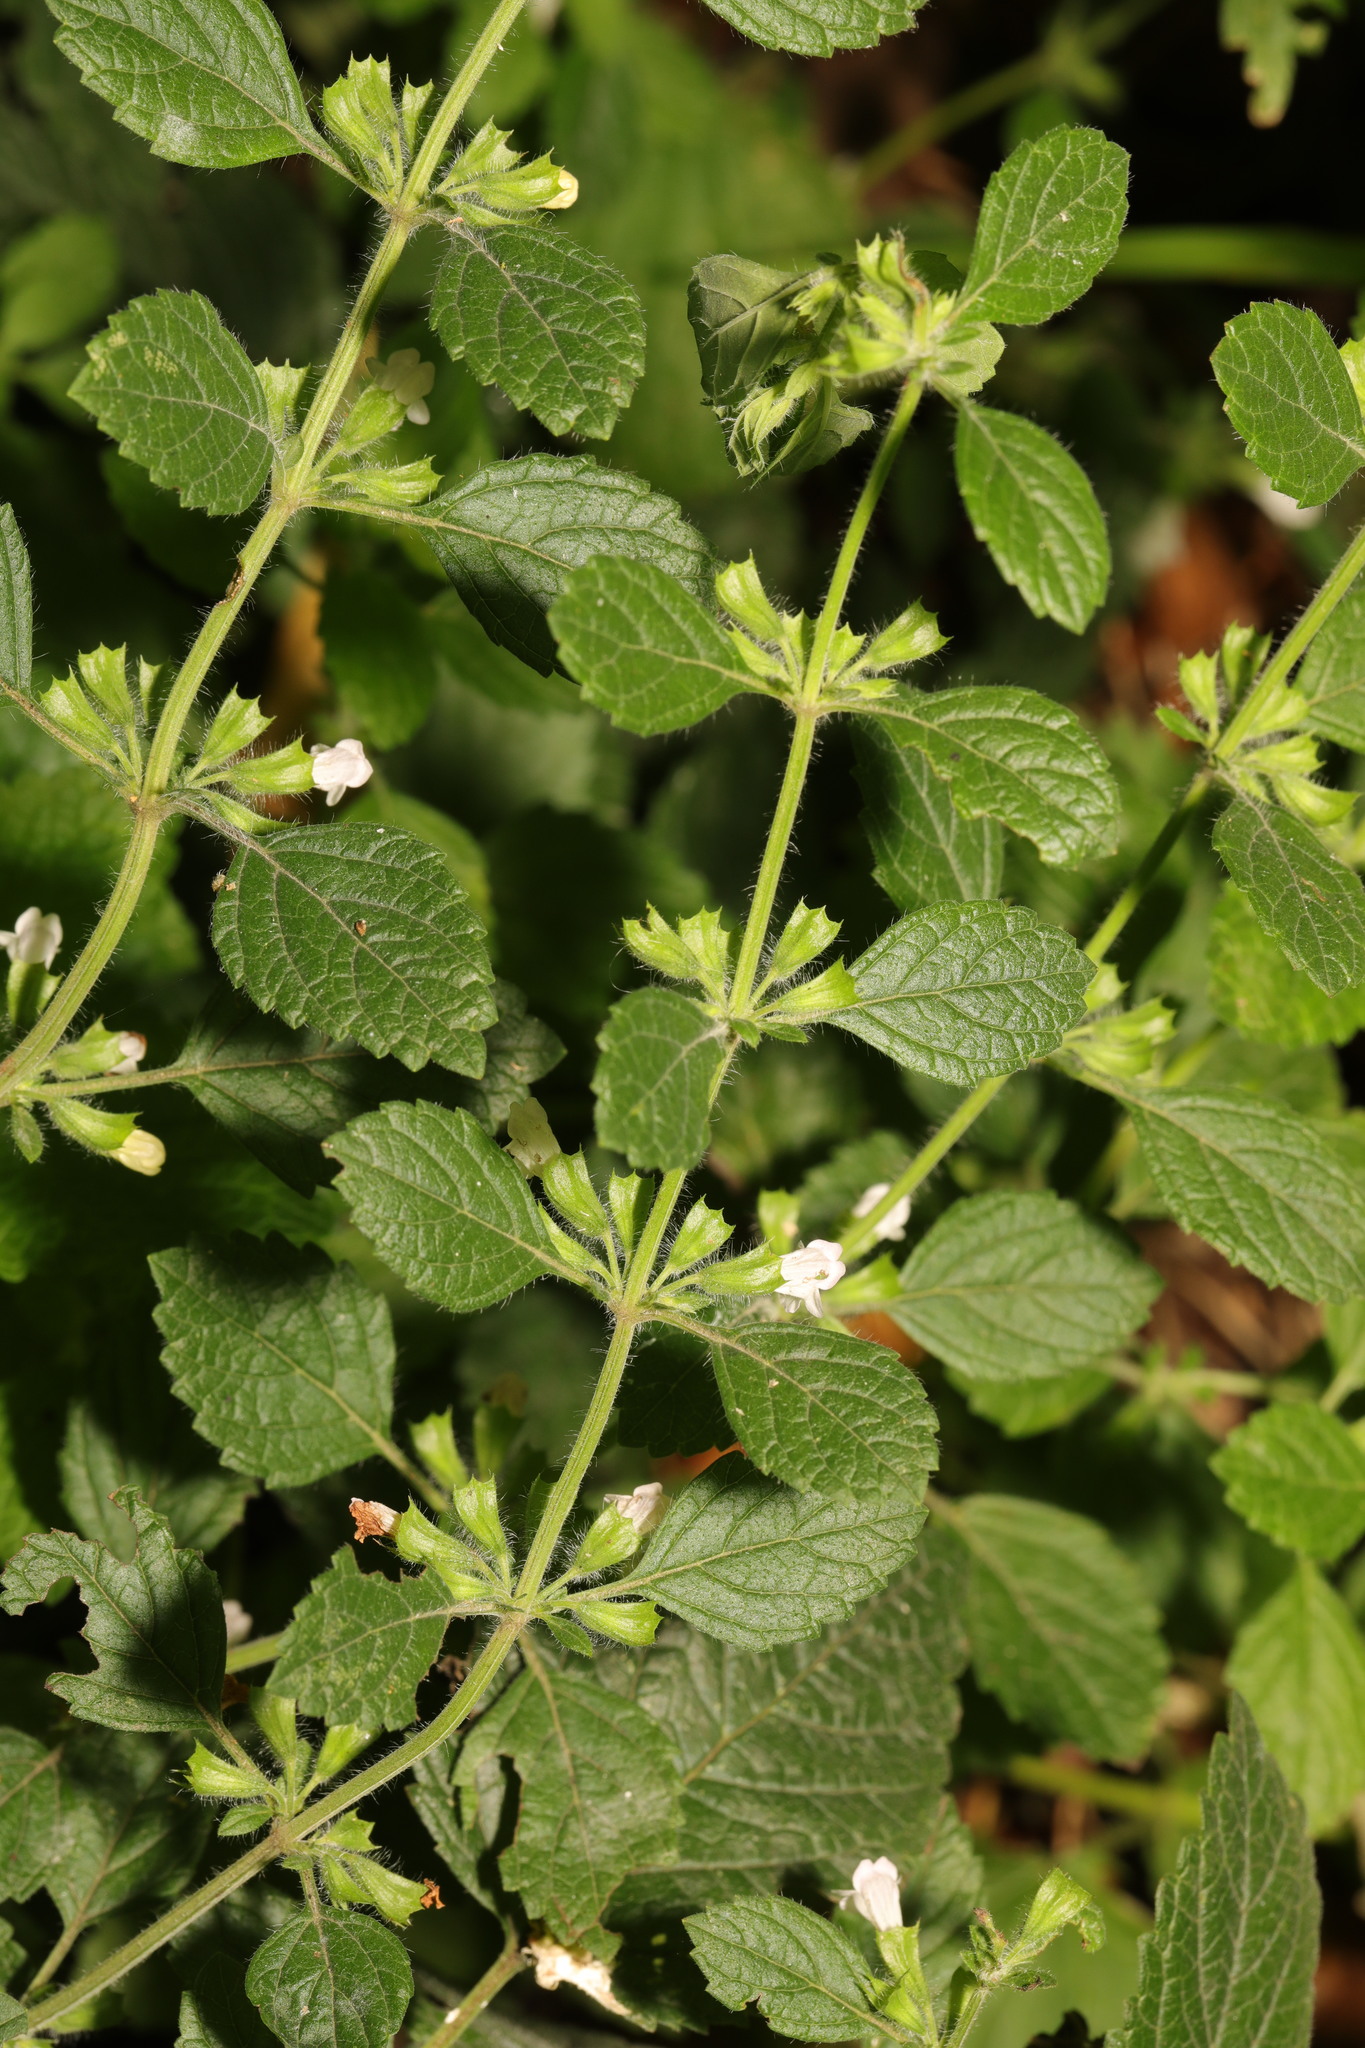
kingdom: Plantae
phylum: Tracheophyta
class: Magnoliopsida
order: Lamiales
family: Lamiaceae
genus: Melissa
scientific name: Melissa officinalis
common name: Balm
